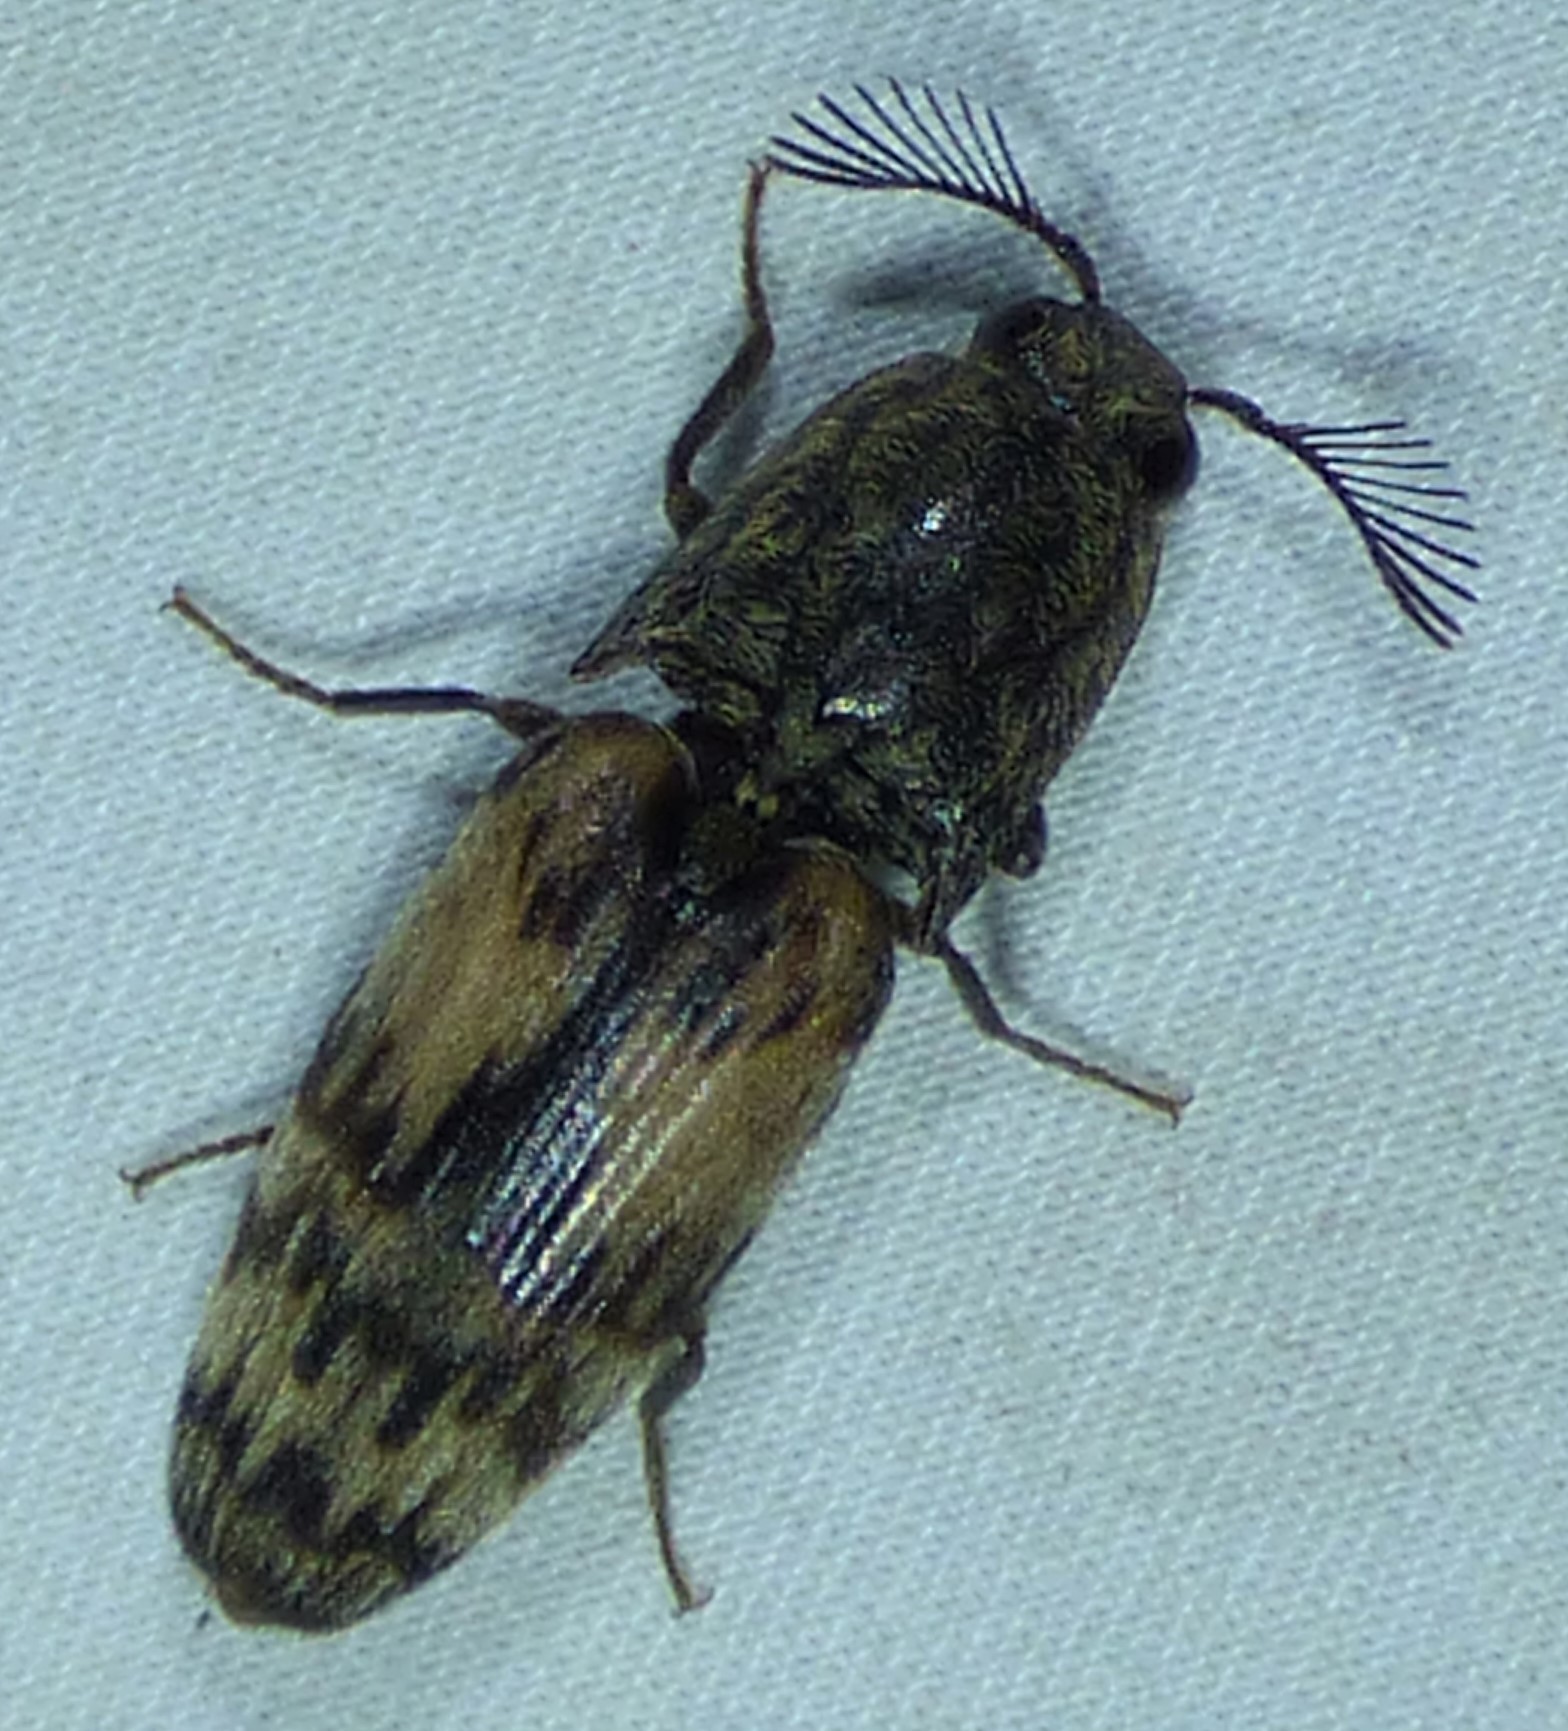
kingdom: Animalia
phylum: Arthropoda
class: Insecta
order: Coleoptera
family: Elateridae
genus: Pherhimius
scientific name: Pherhimius fascicularis
